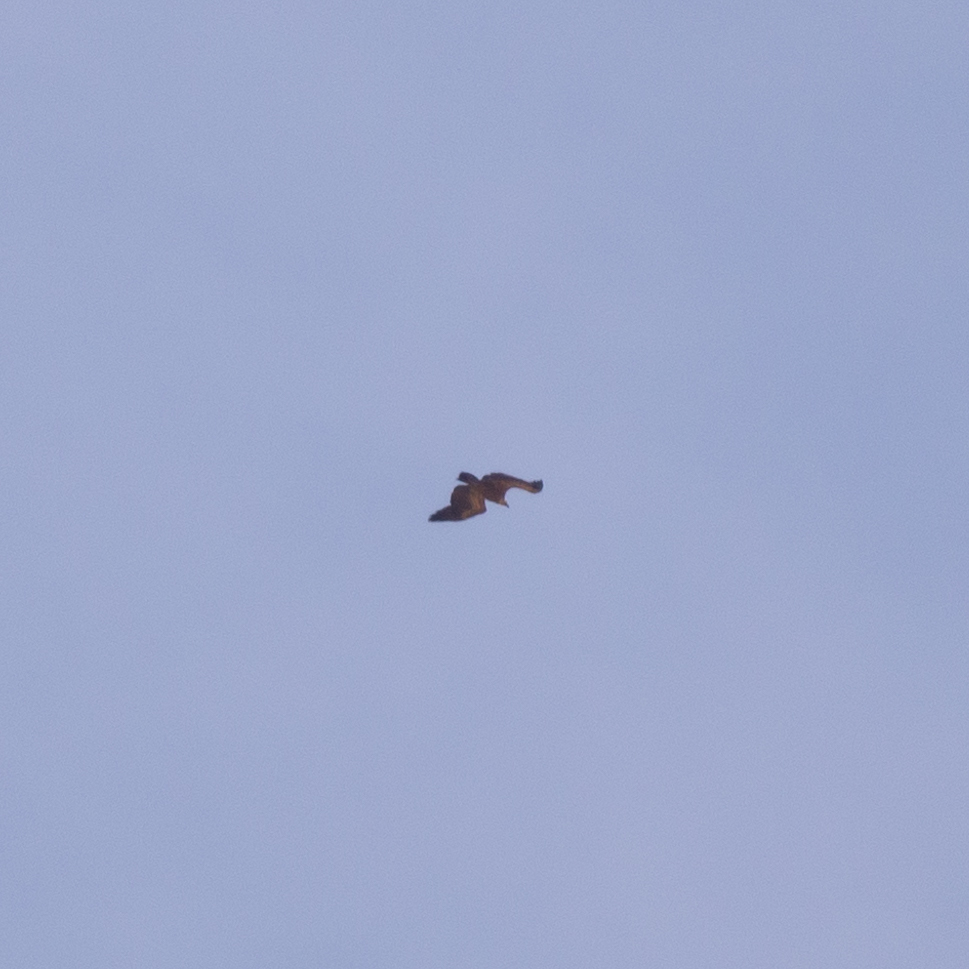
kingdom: Animalia
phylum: Chordata
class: Aves
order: Accipitriformes
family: Accipitridae
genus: Gyps
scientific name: Gyps fulvus
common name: Griffon vulture
